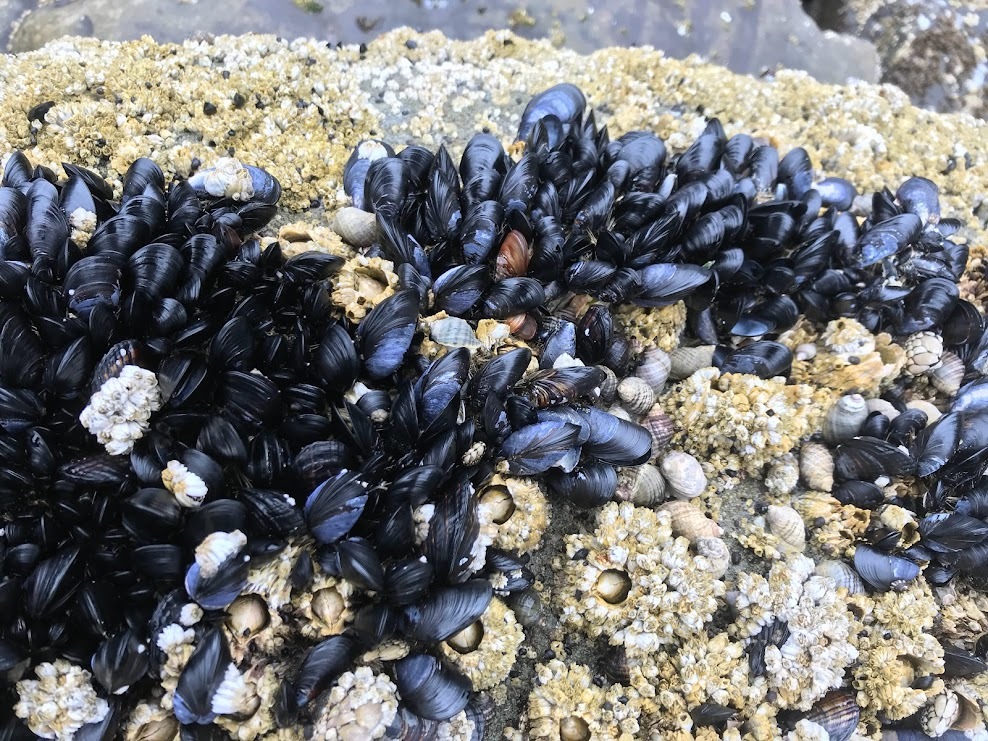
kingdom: Animalia
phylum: Mollusca
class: Bivalvia
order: Mytilida
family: Mytilidae
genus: Mytilus
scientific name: Mytilus trossulus
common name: Northern blue mussel
